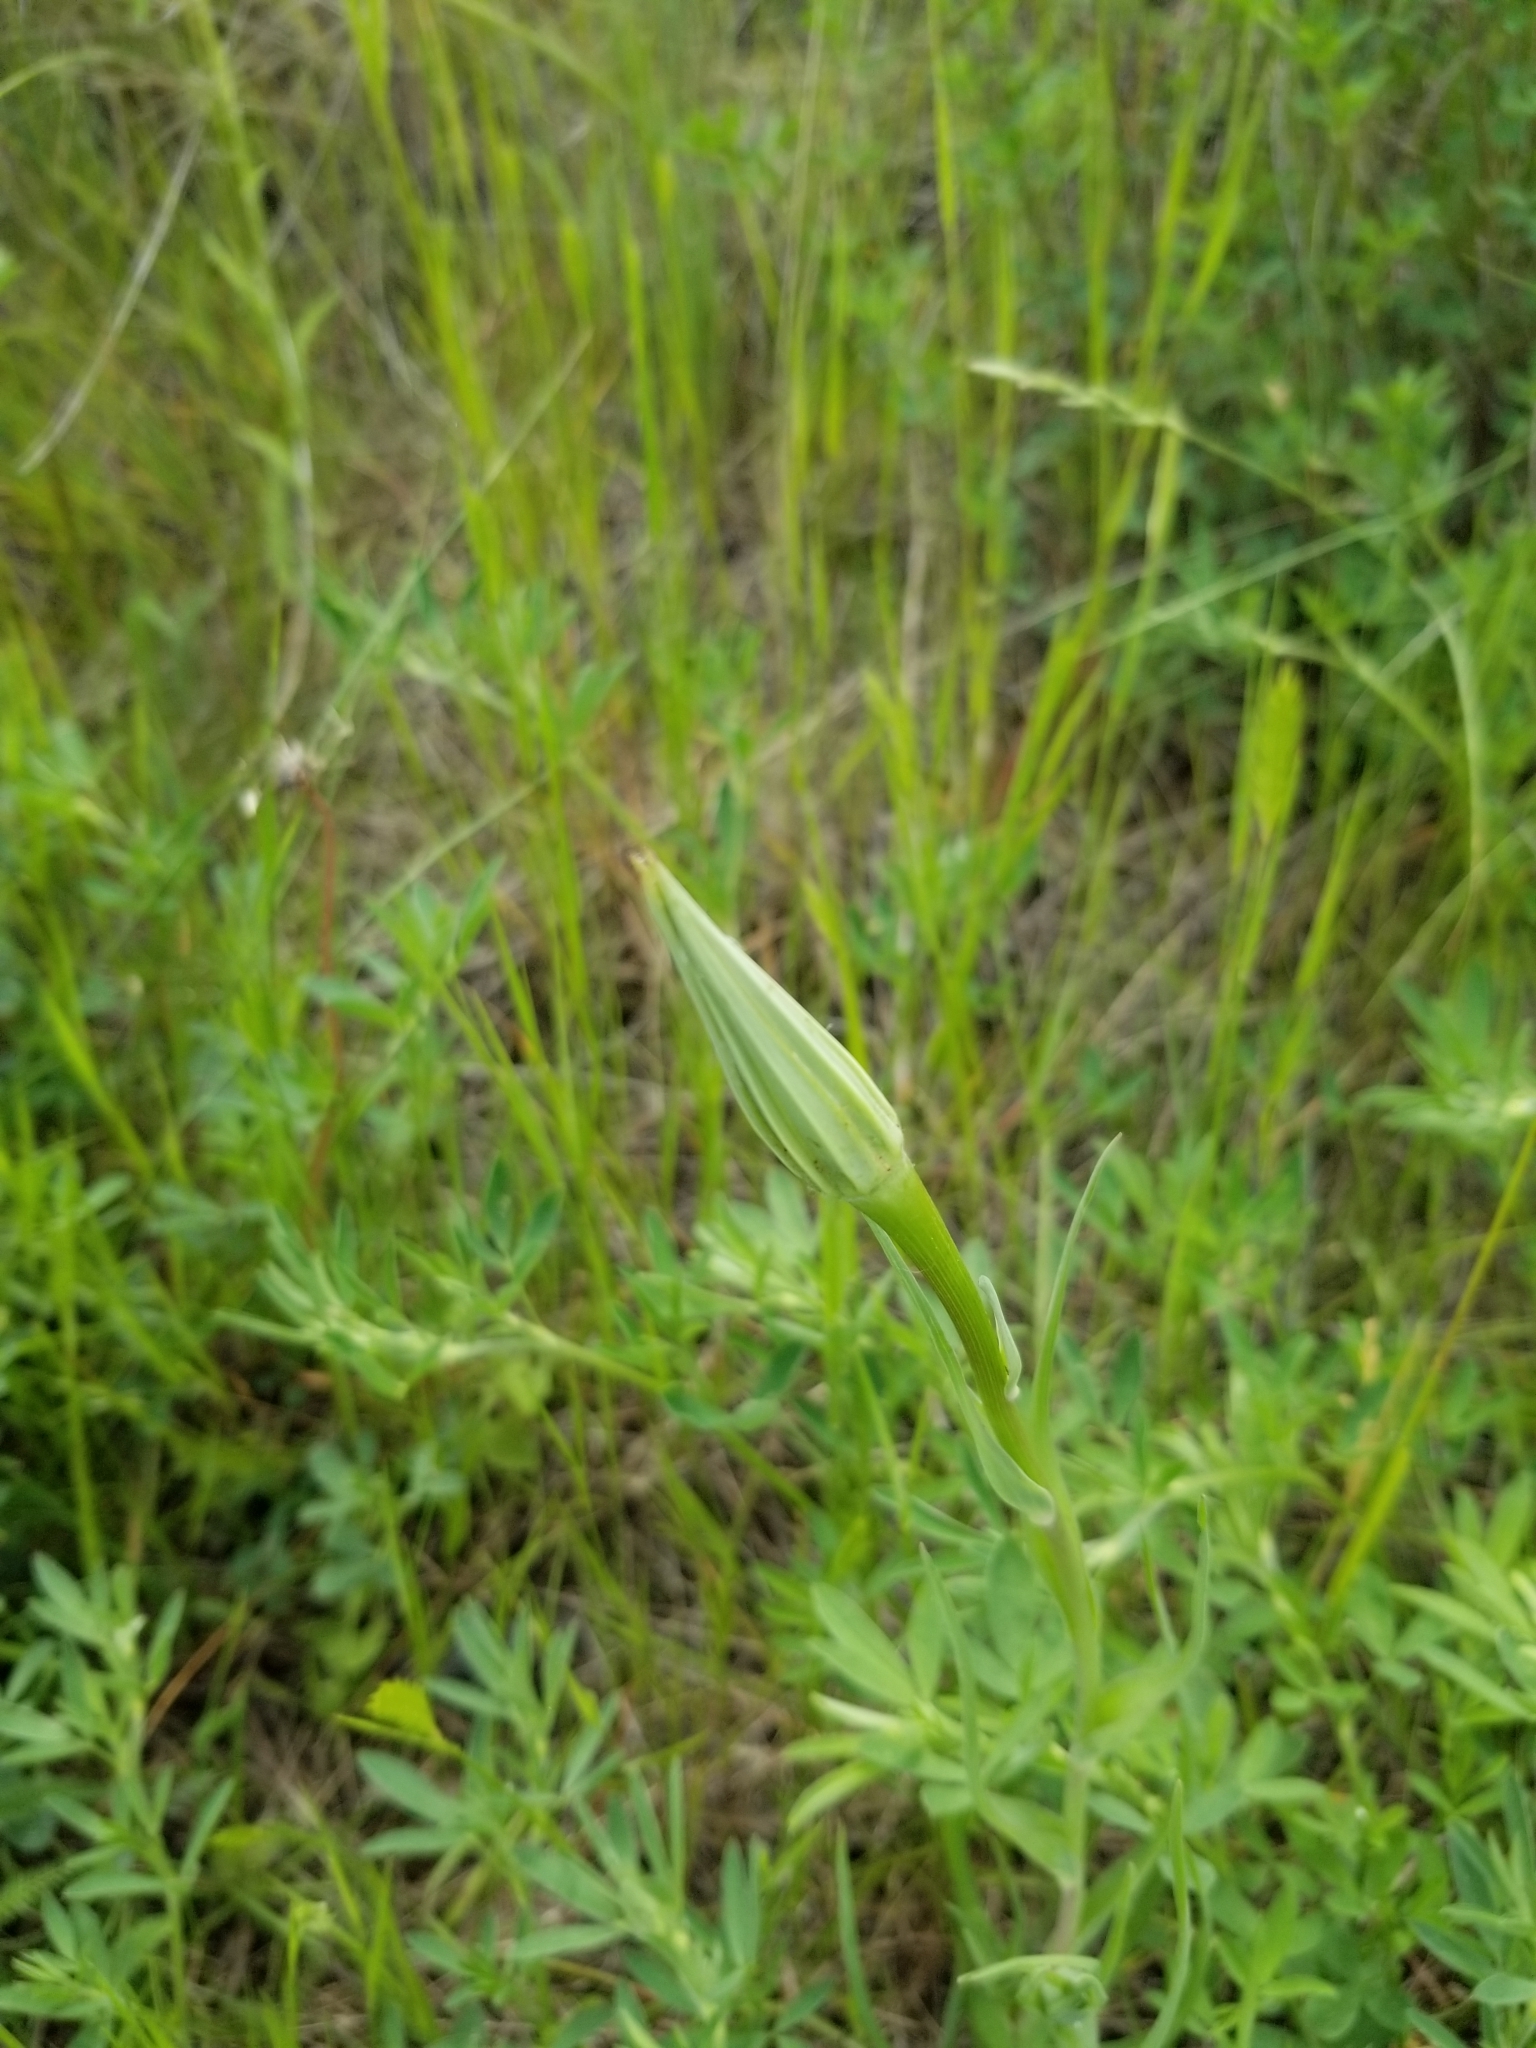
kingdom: Plantae
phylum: Tracheophyta
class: Magnoliopsida
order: Asterales
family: Asteraceae
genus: Tragopogon
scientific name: Tragopogon dubius
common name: Yellow salsify
